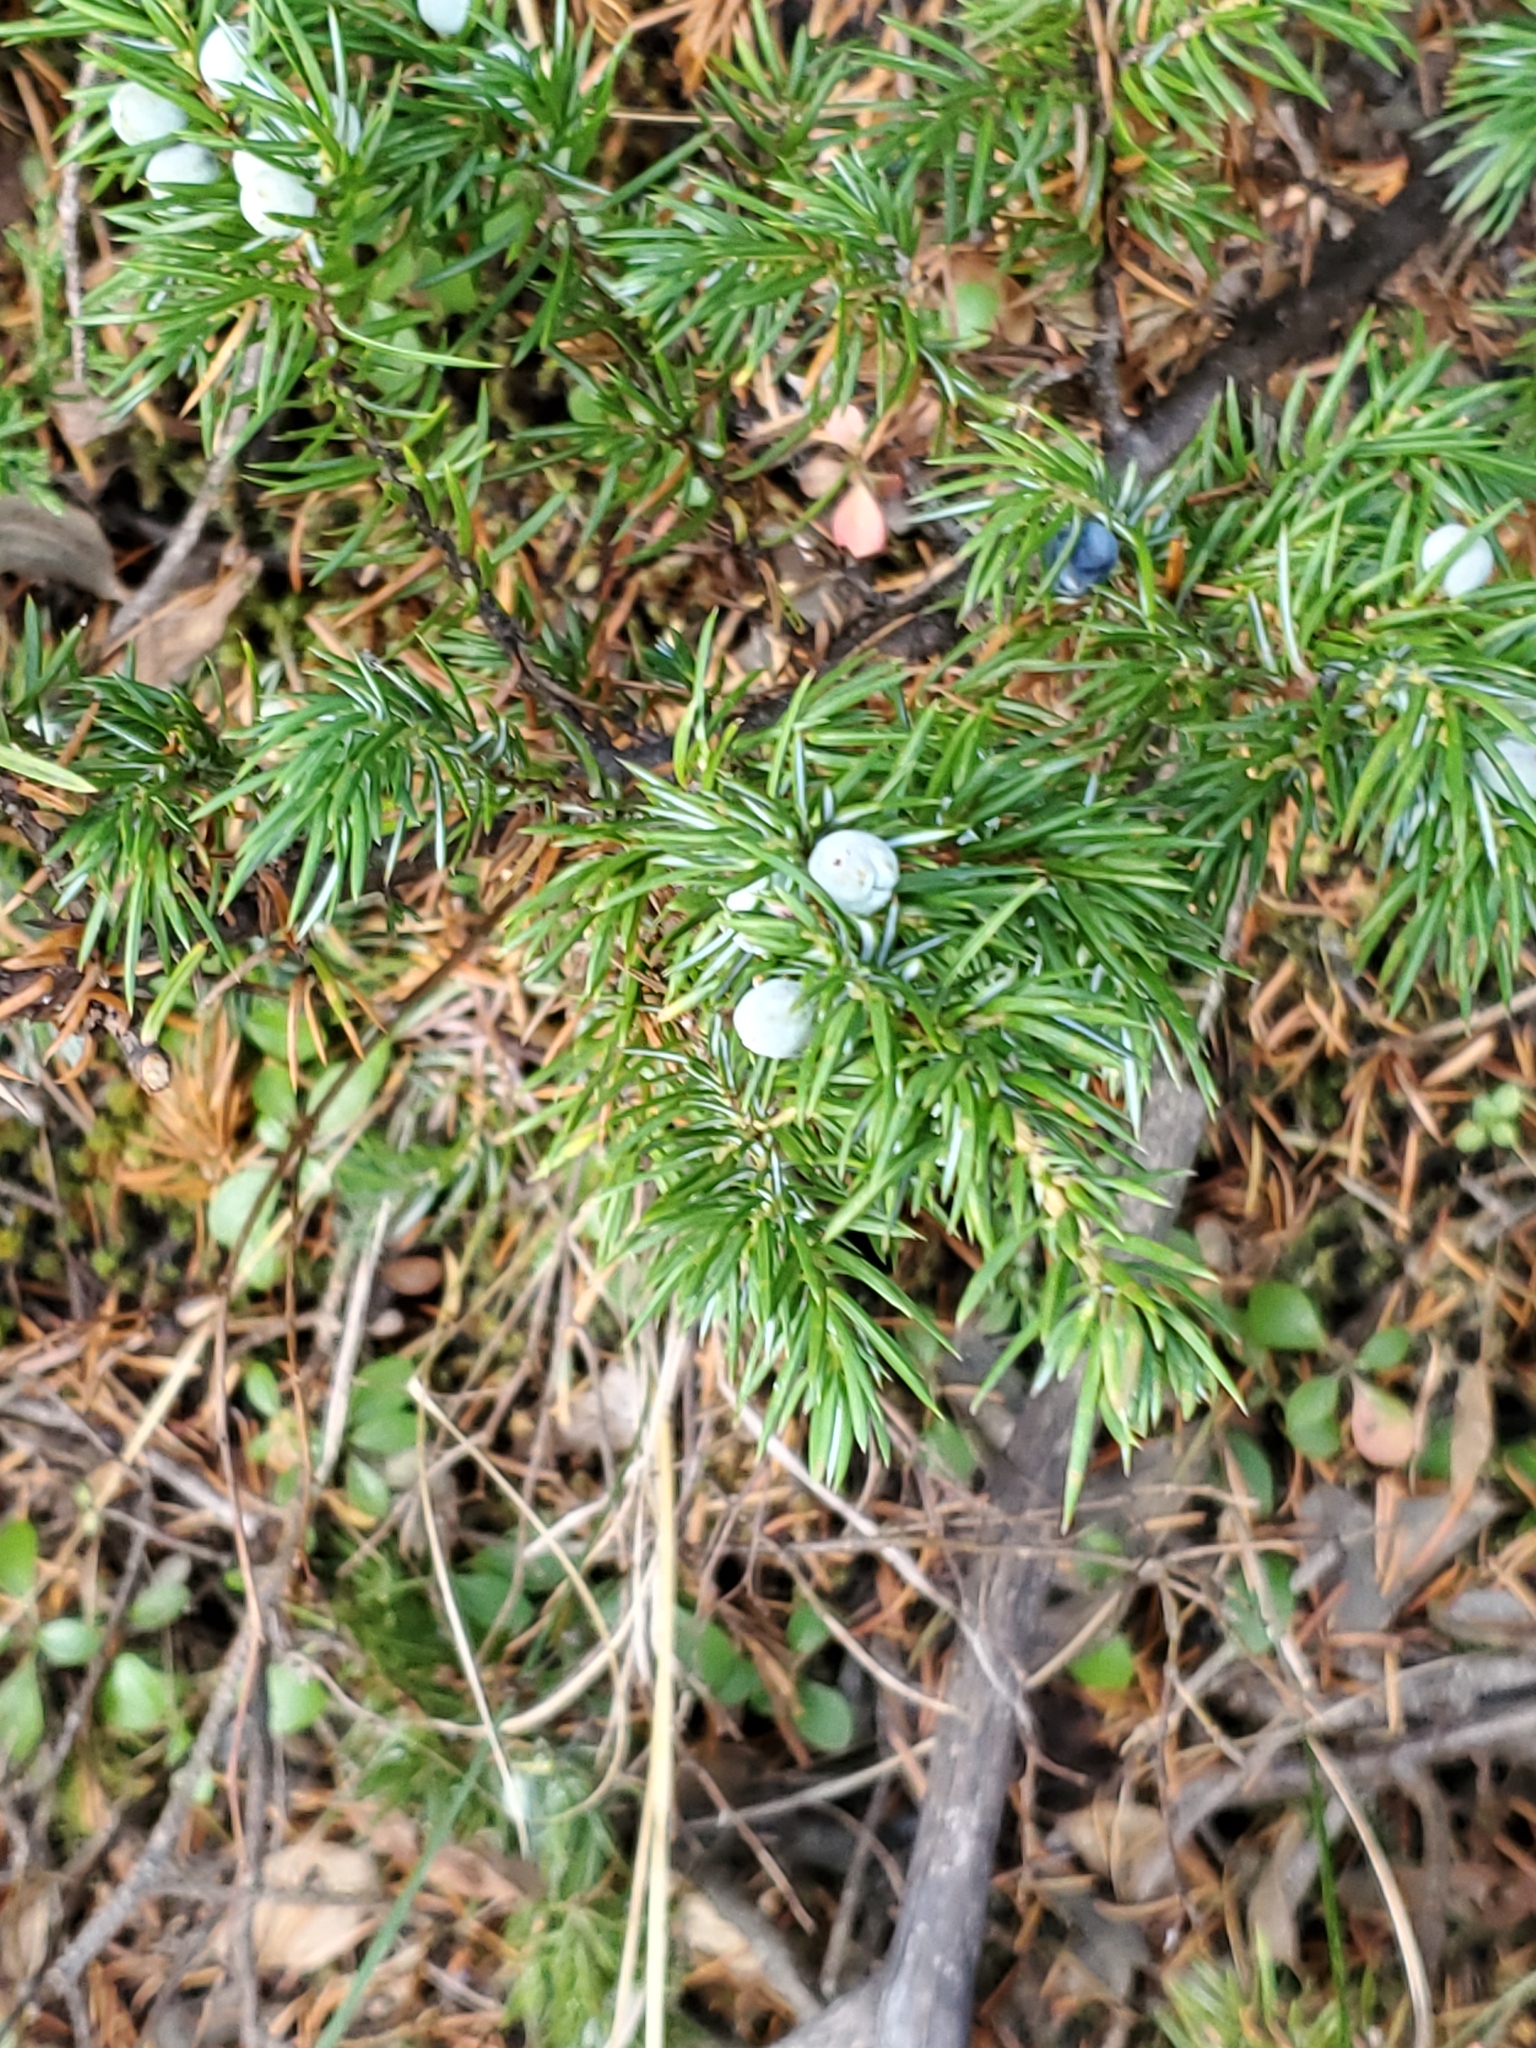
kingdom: Plantae
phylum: Tracheophyta
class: Pinopsida
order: Pinales
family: Cupressaceae
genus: Juniperus
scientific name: Juniperus communis
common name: Common juniper
